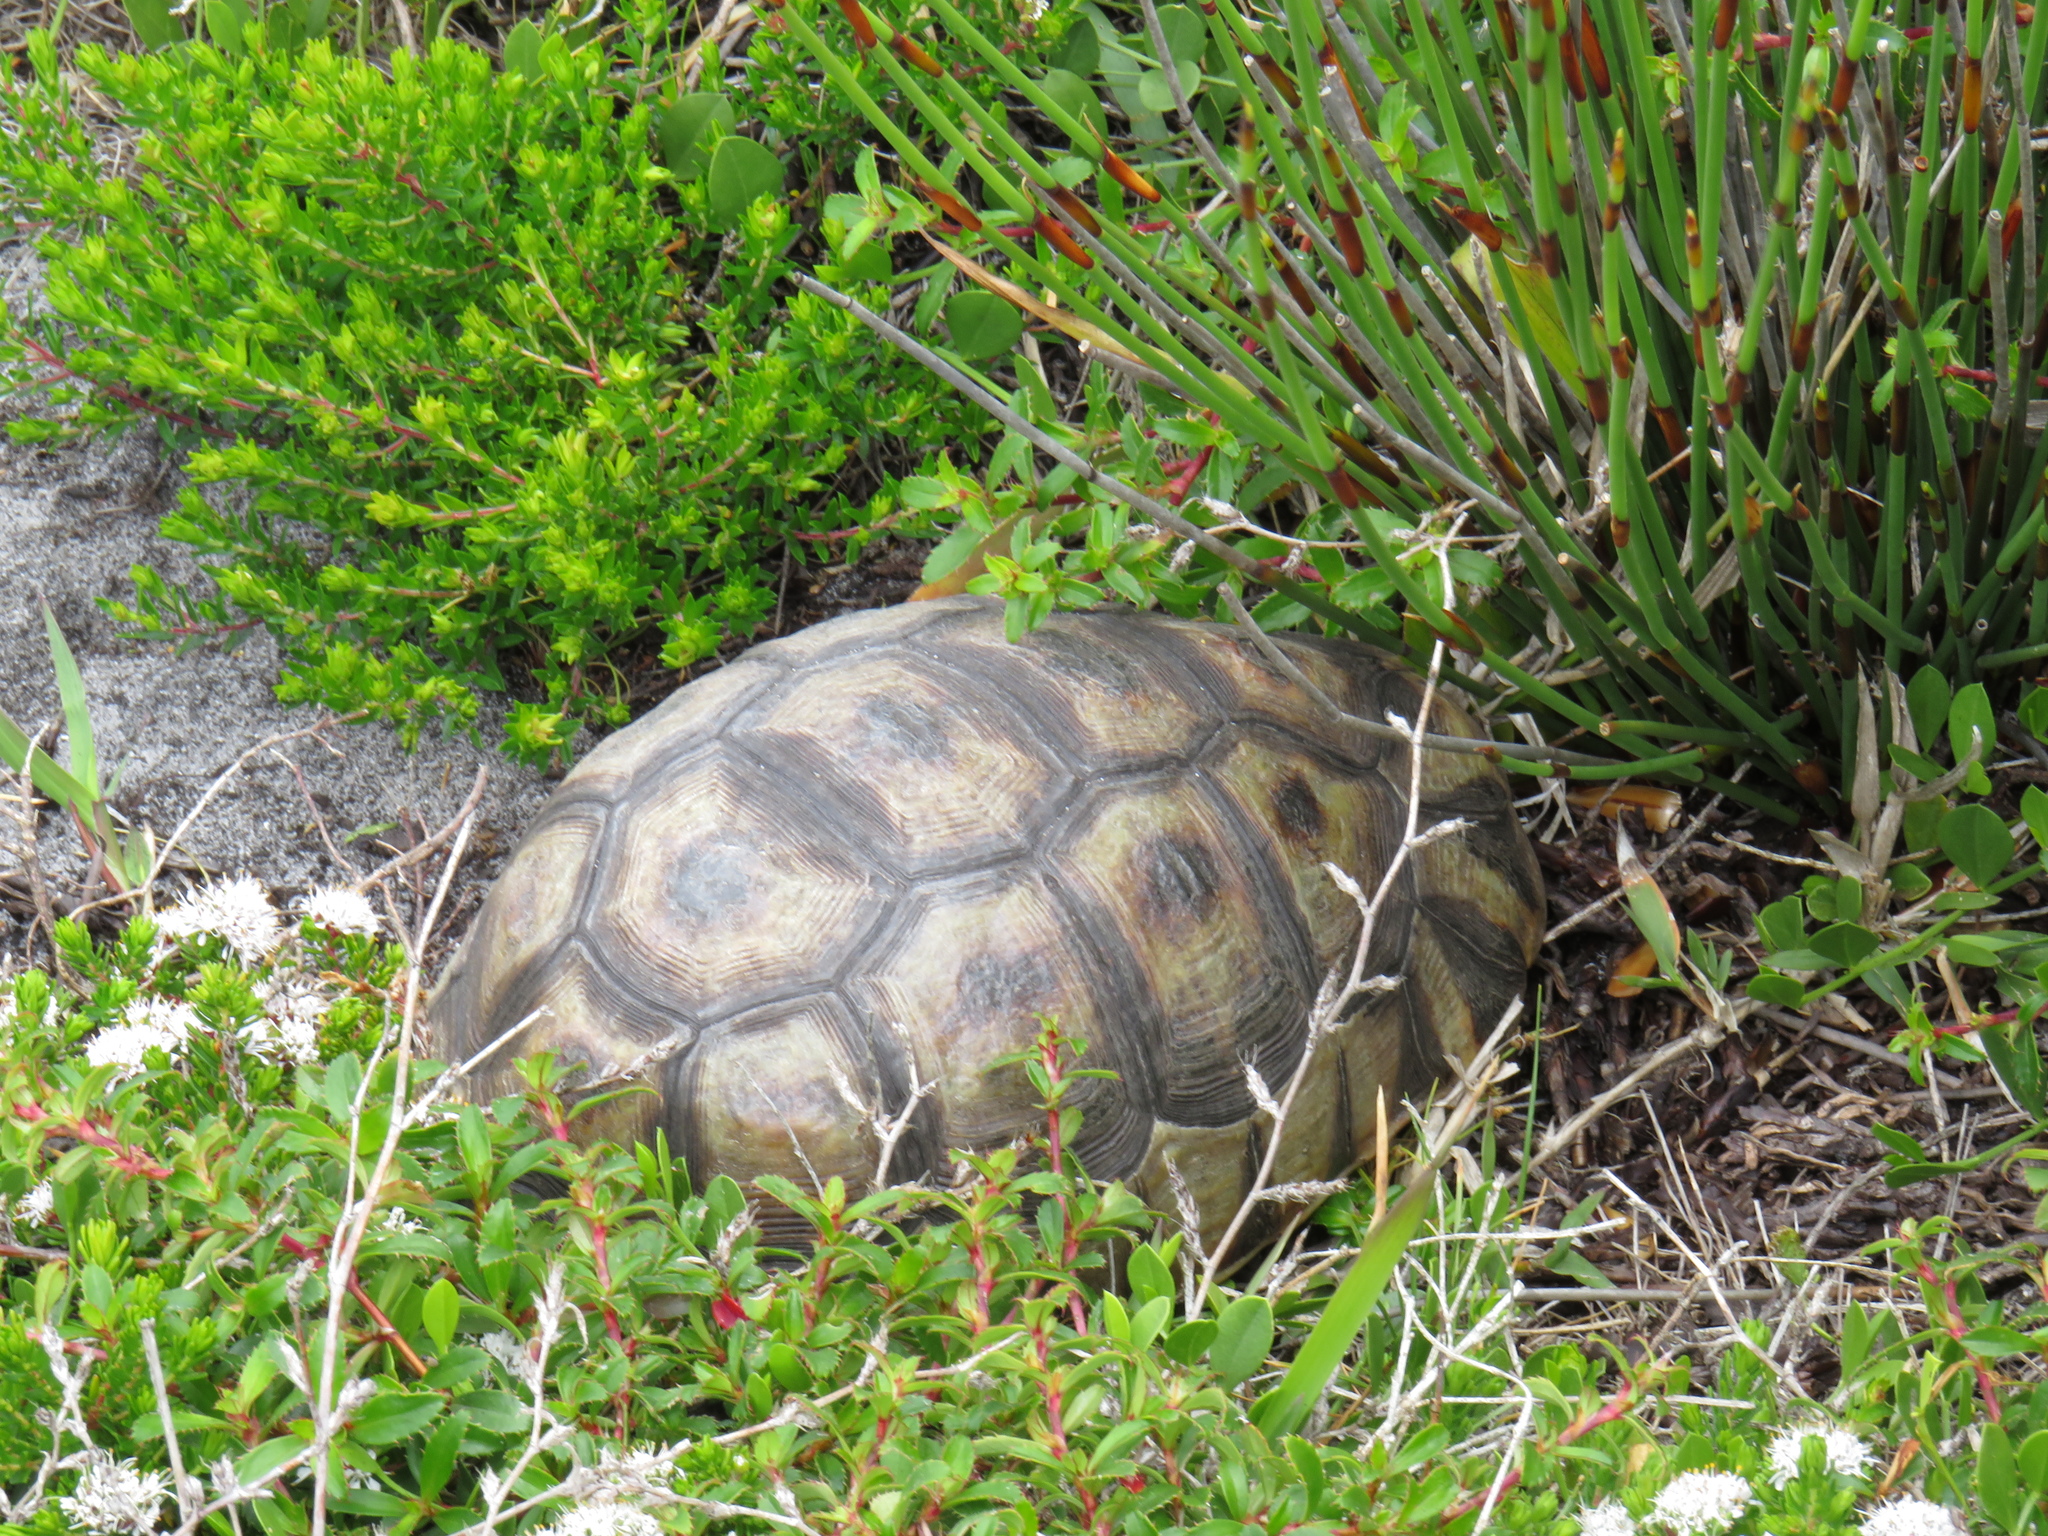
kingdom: Animalia
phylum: Chordata
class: Testudines
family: Testudinidae
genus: Chersina
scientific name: Chersina angulata
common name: South african bowsprit tortoise
